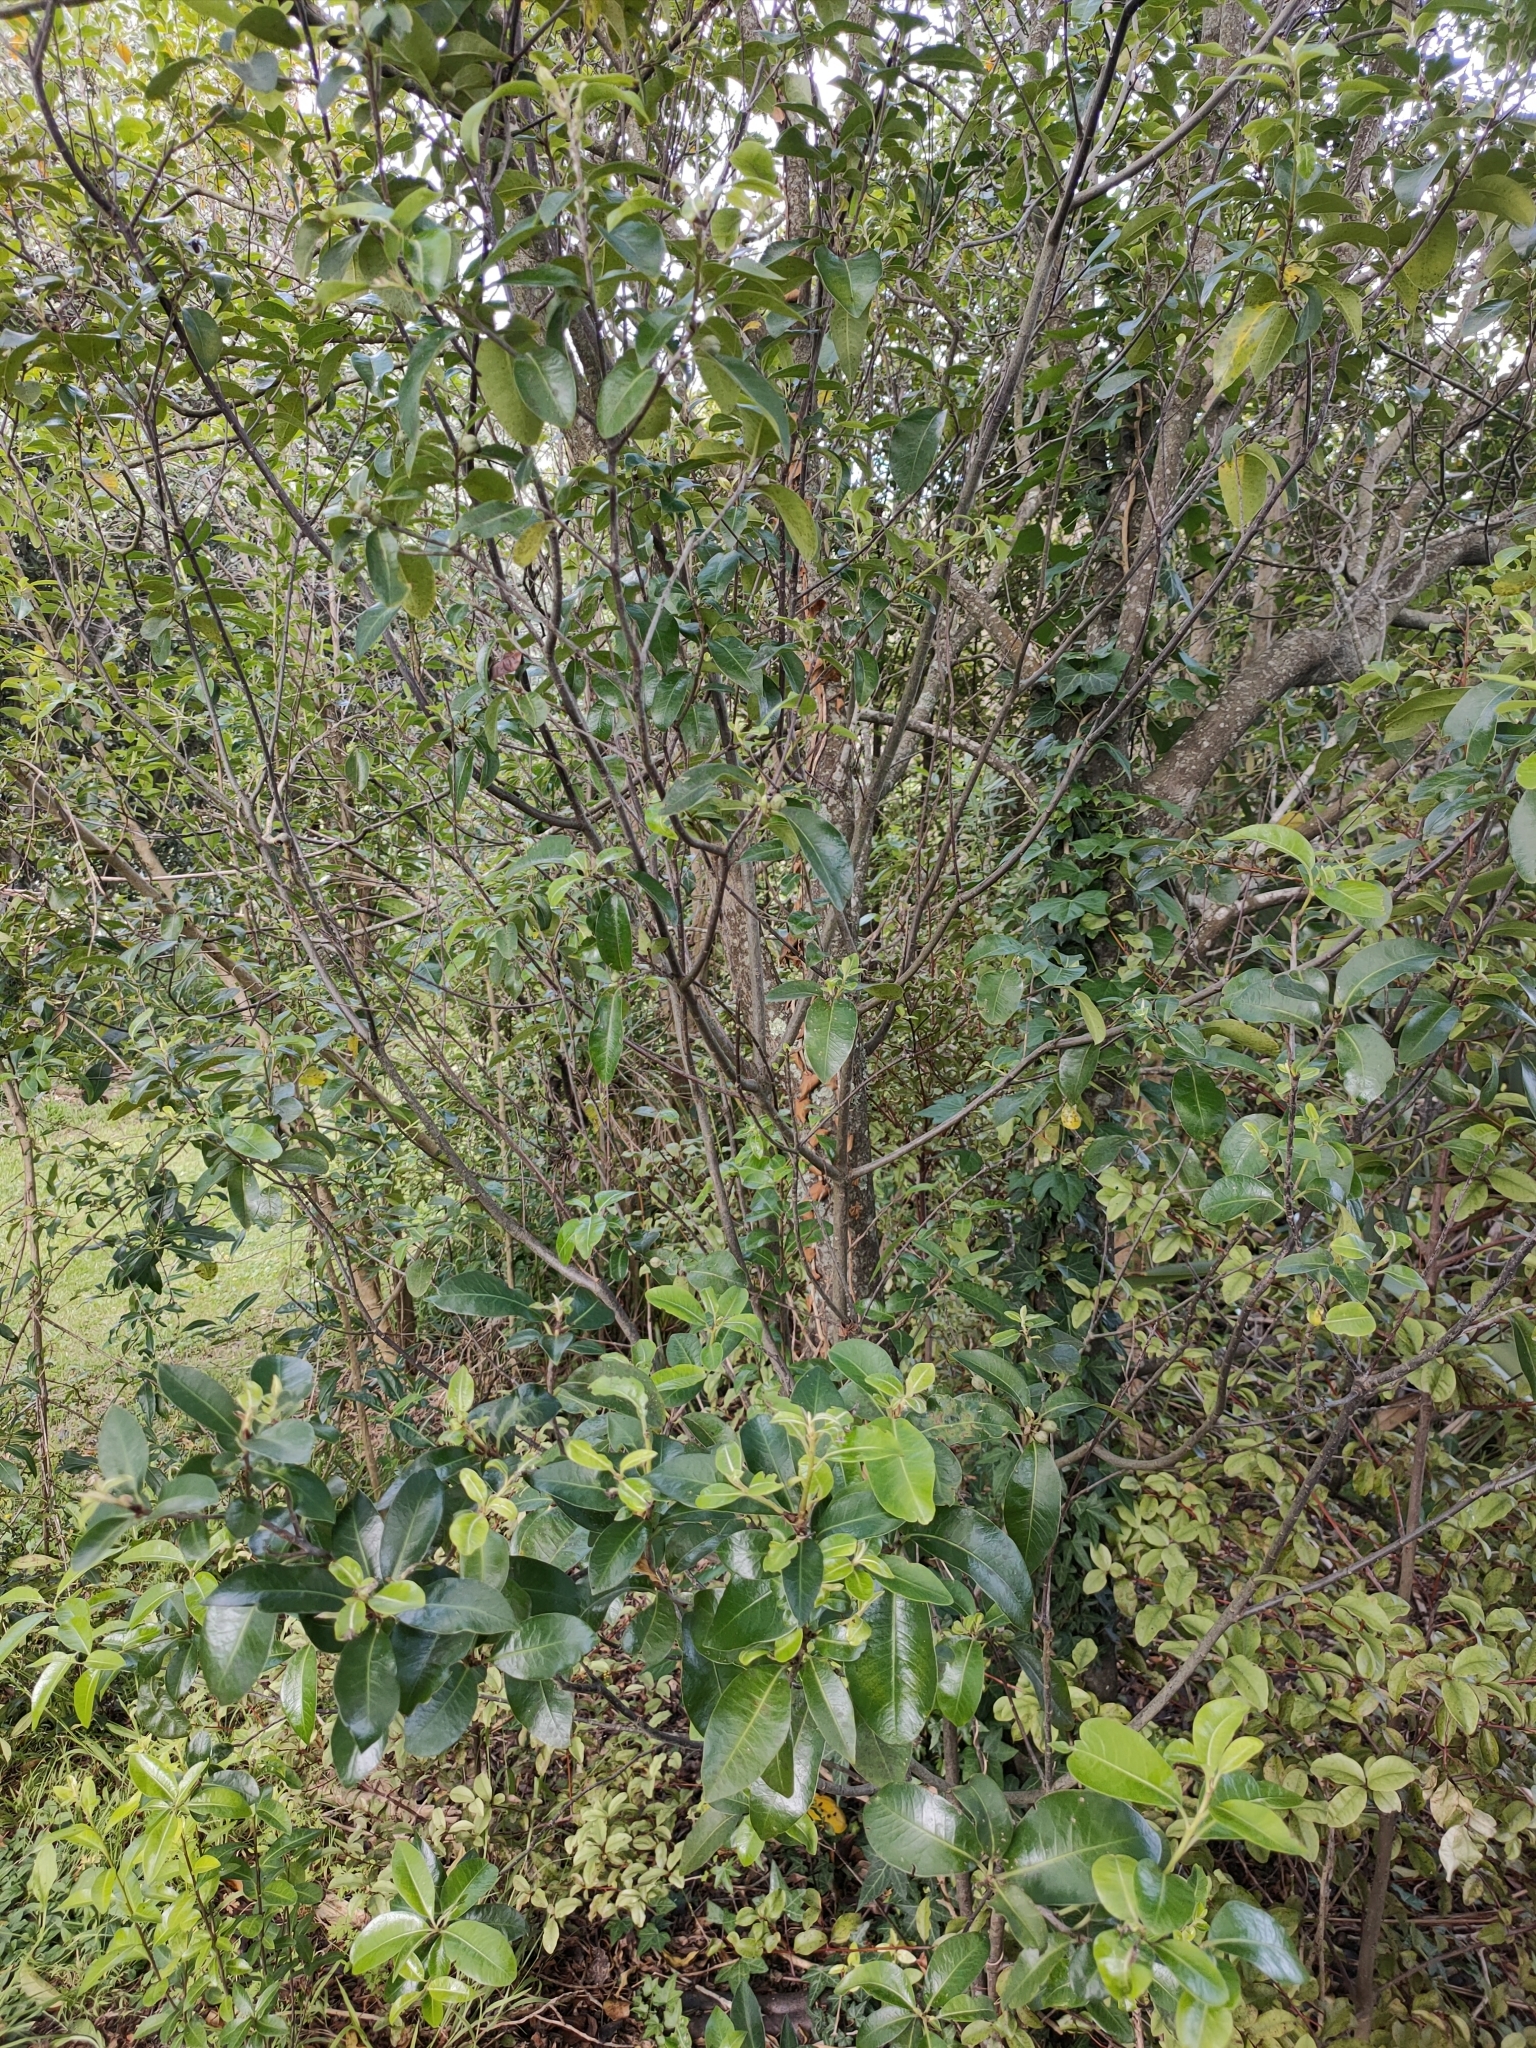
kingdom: Plantae
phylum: Tracheophyta
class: Magnoliopsida
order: Apiales
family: Pittosporaceae
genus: Pittosporum
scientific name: Pittosporum tenuifolium
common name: Kohuhu
